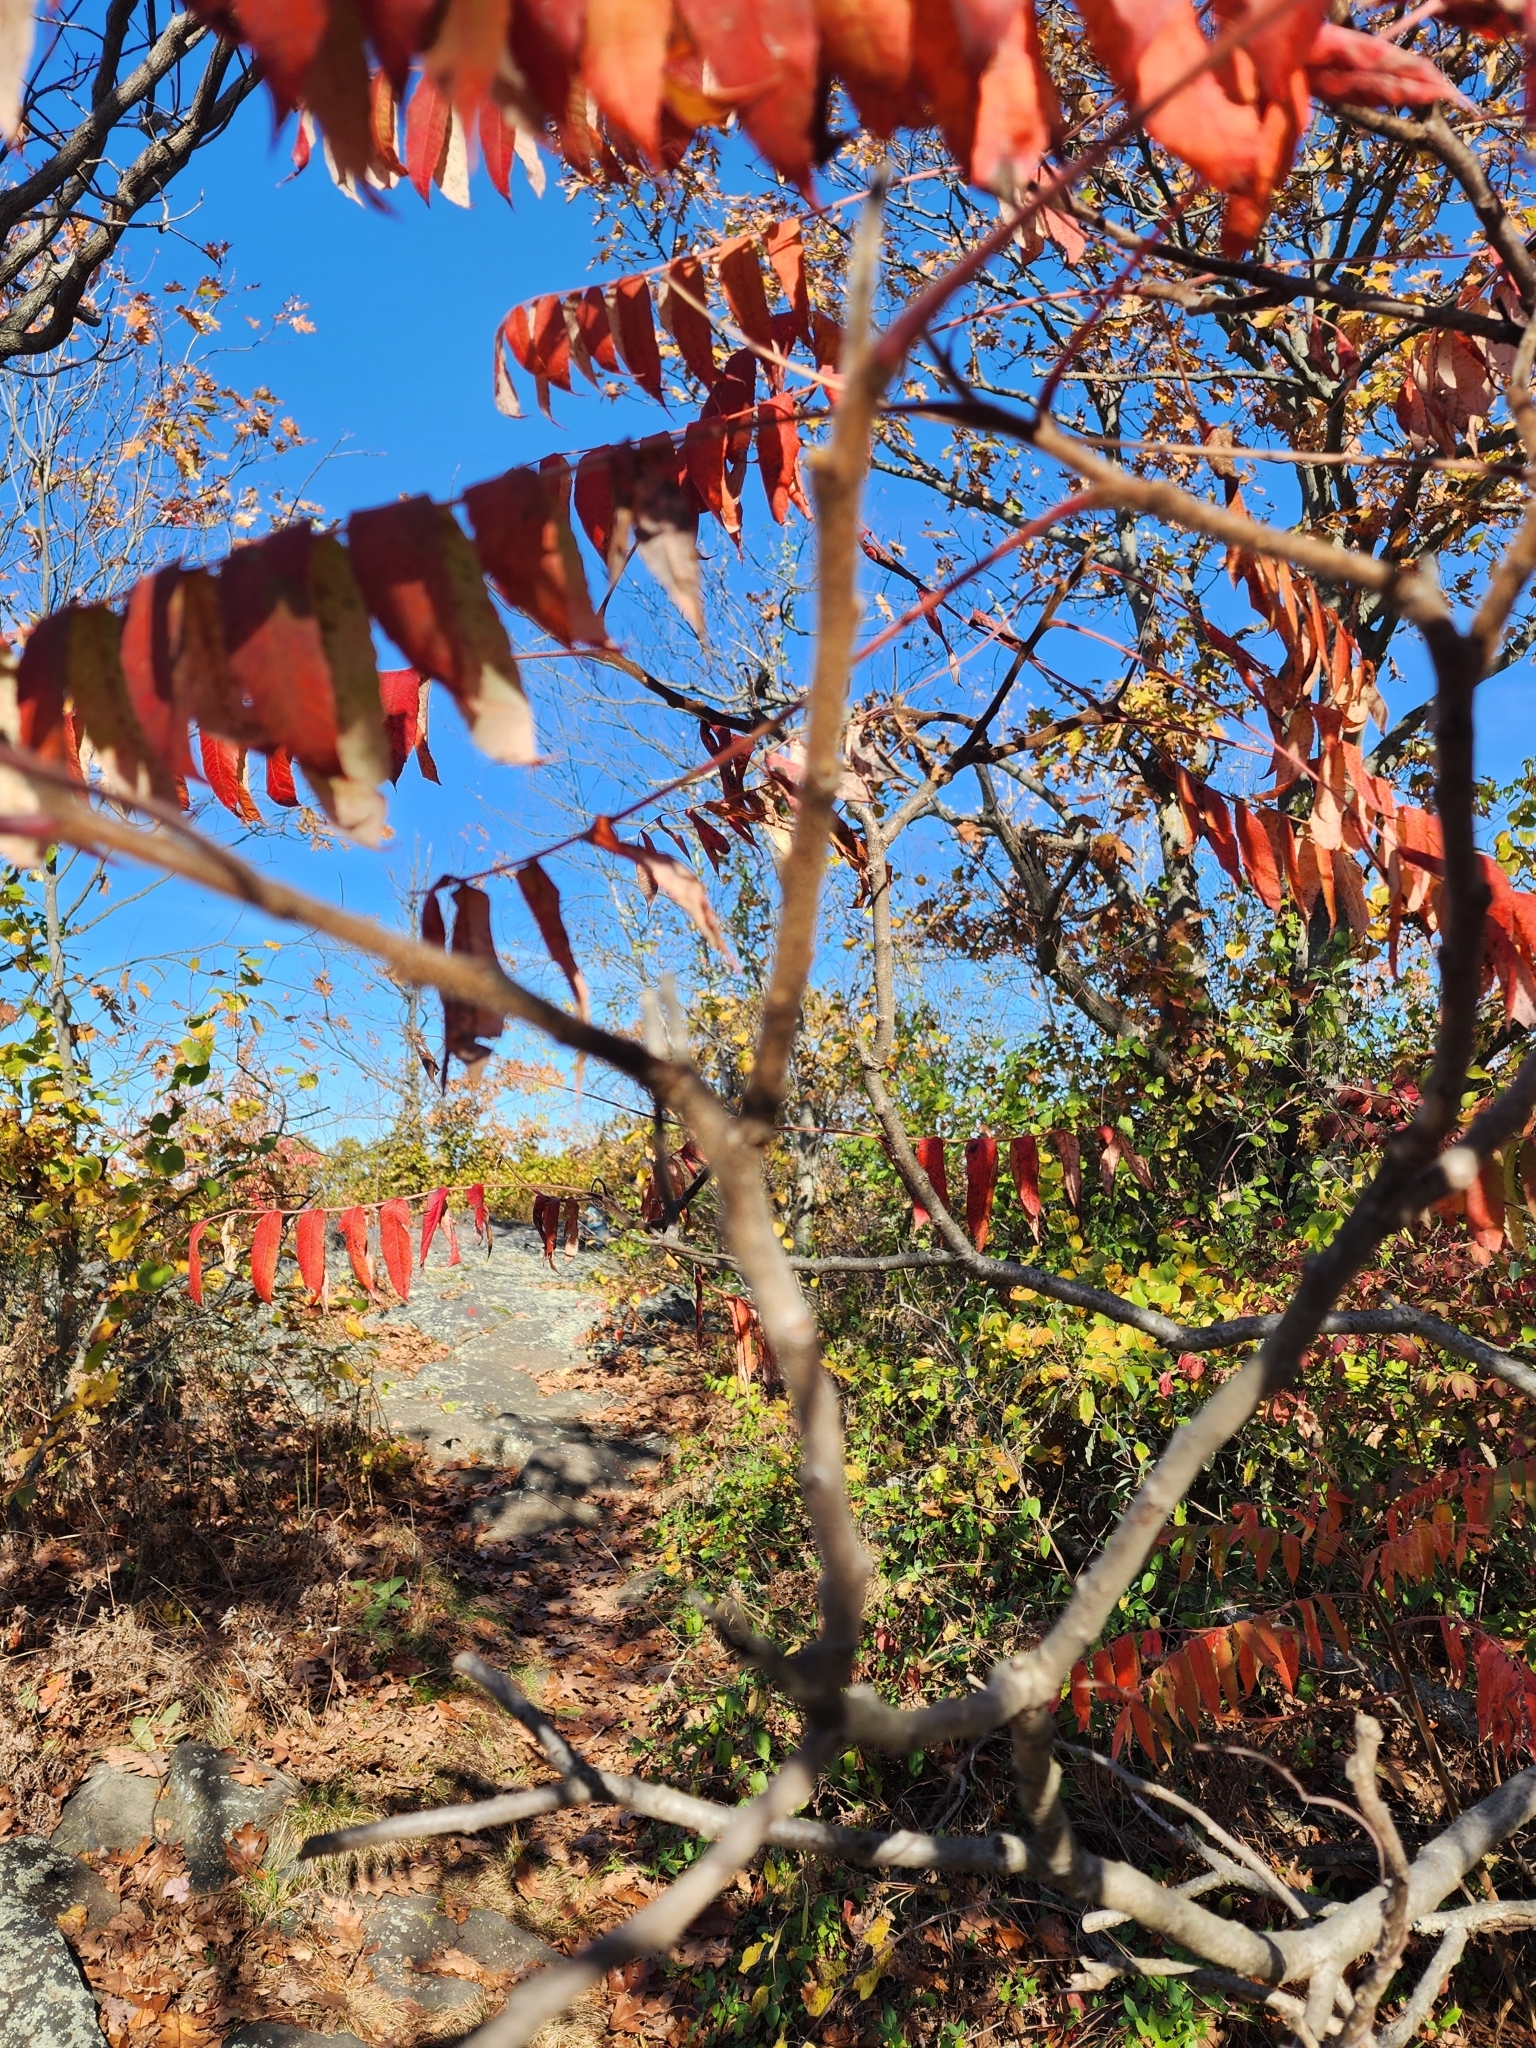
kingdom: Plantae
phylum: Tracheophyta
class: Magnoliopsida
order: Sapindales
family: Anacardiaceae
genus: Rhus
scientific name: Rhus typhina
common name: Staghorn sumac
